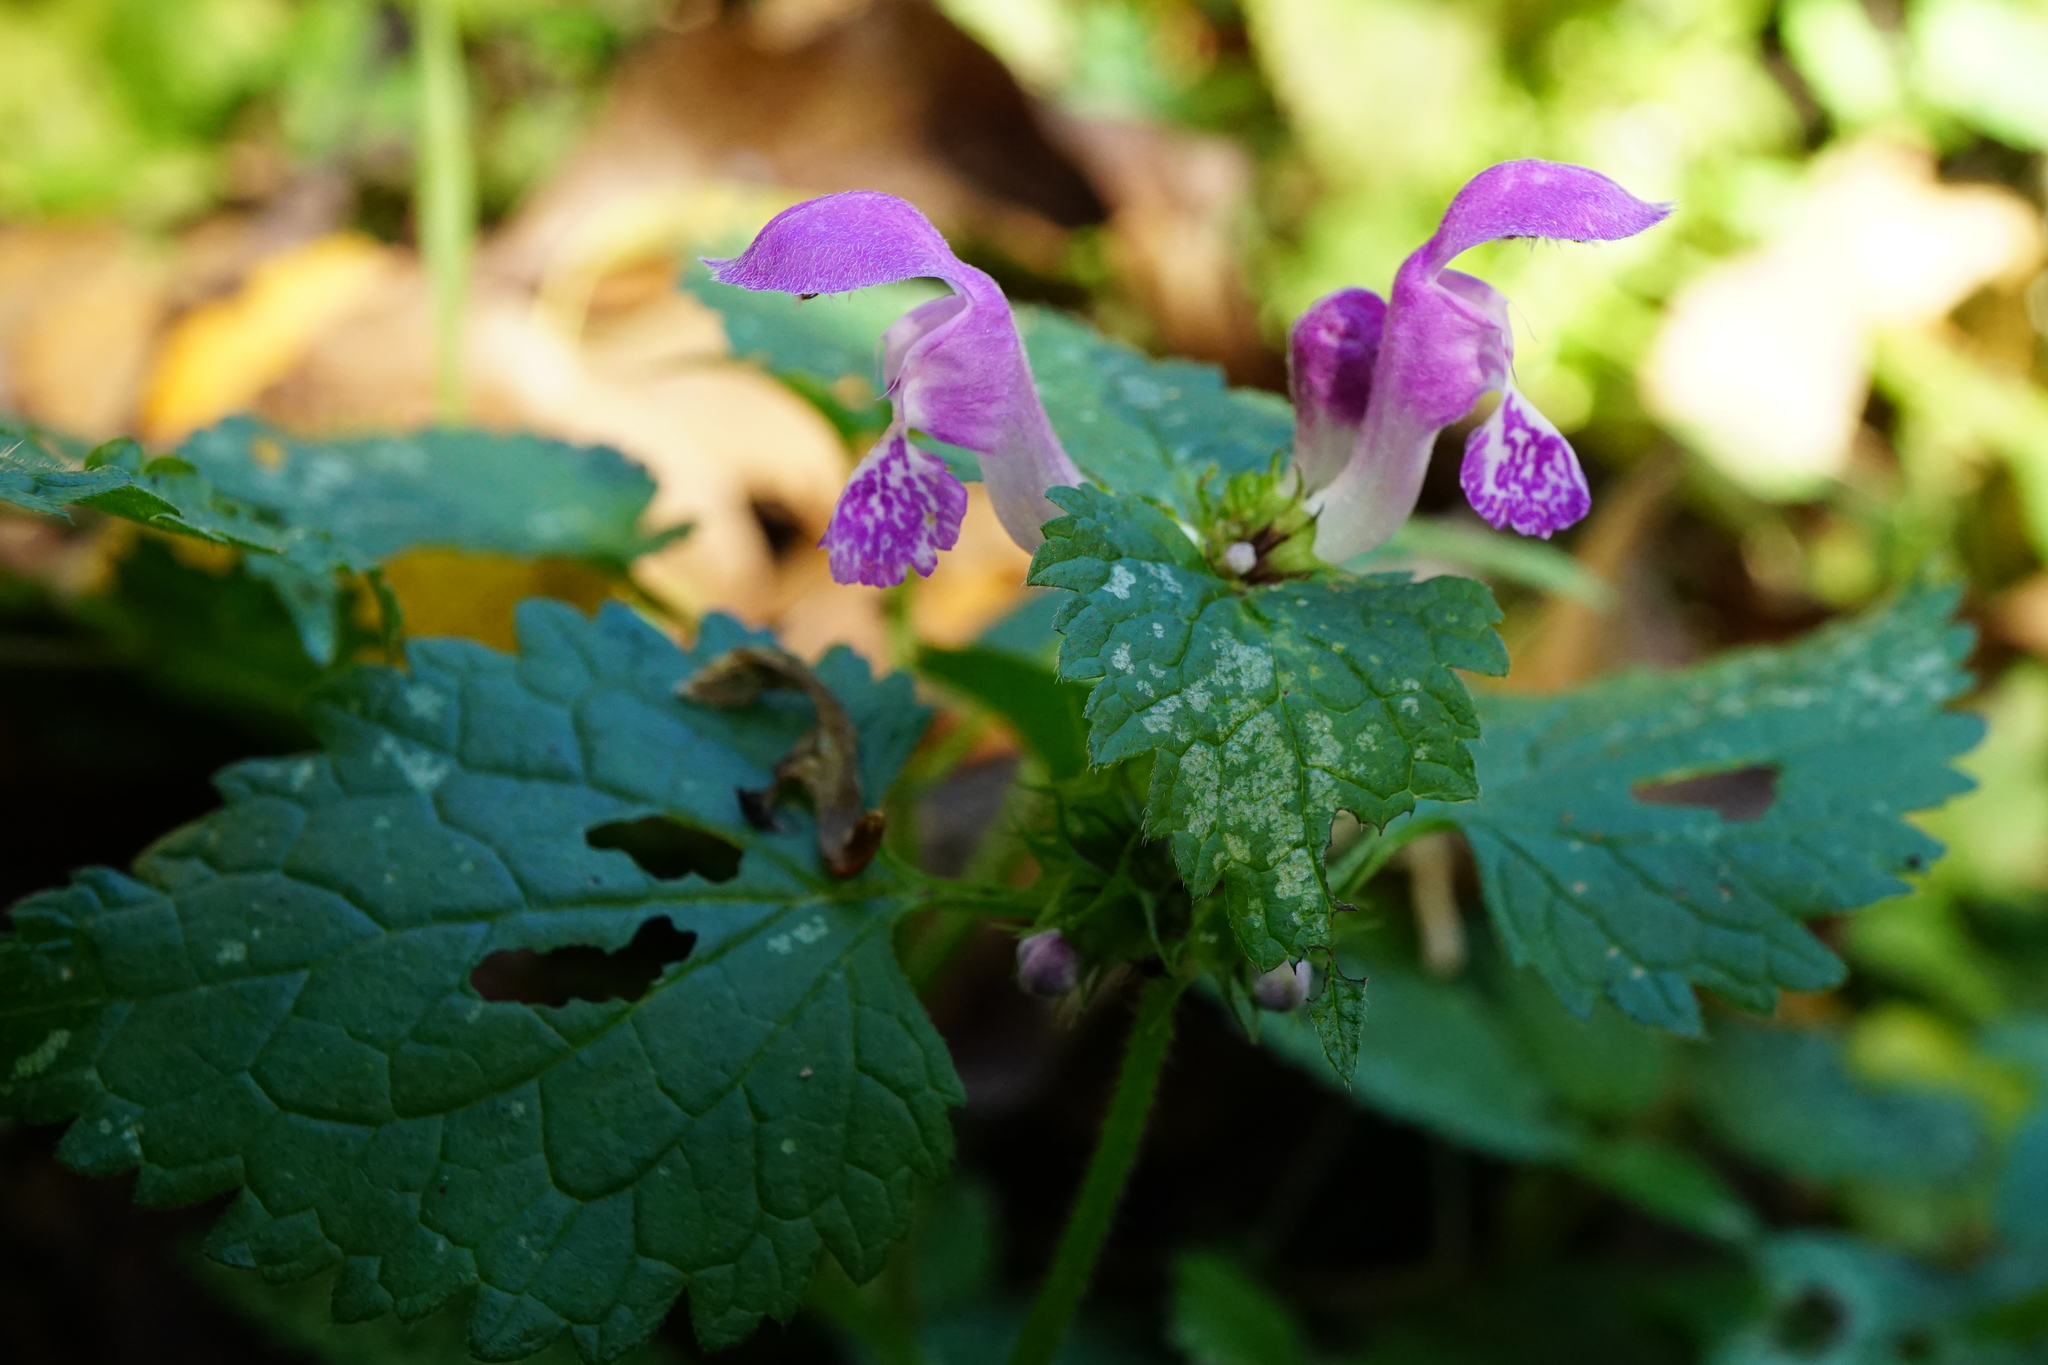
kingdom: Plantae
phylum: Tracheophyta
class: Magnoliopsida
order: Lamiales
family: Lamiaceae
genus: Lamium
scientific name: Lamium maculatum
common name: Spotted dead-nettle
